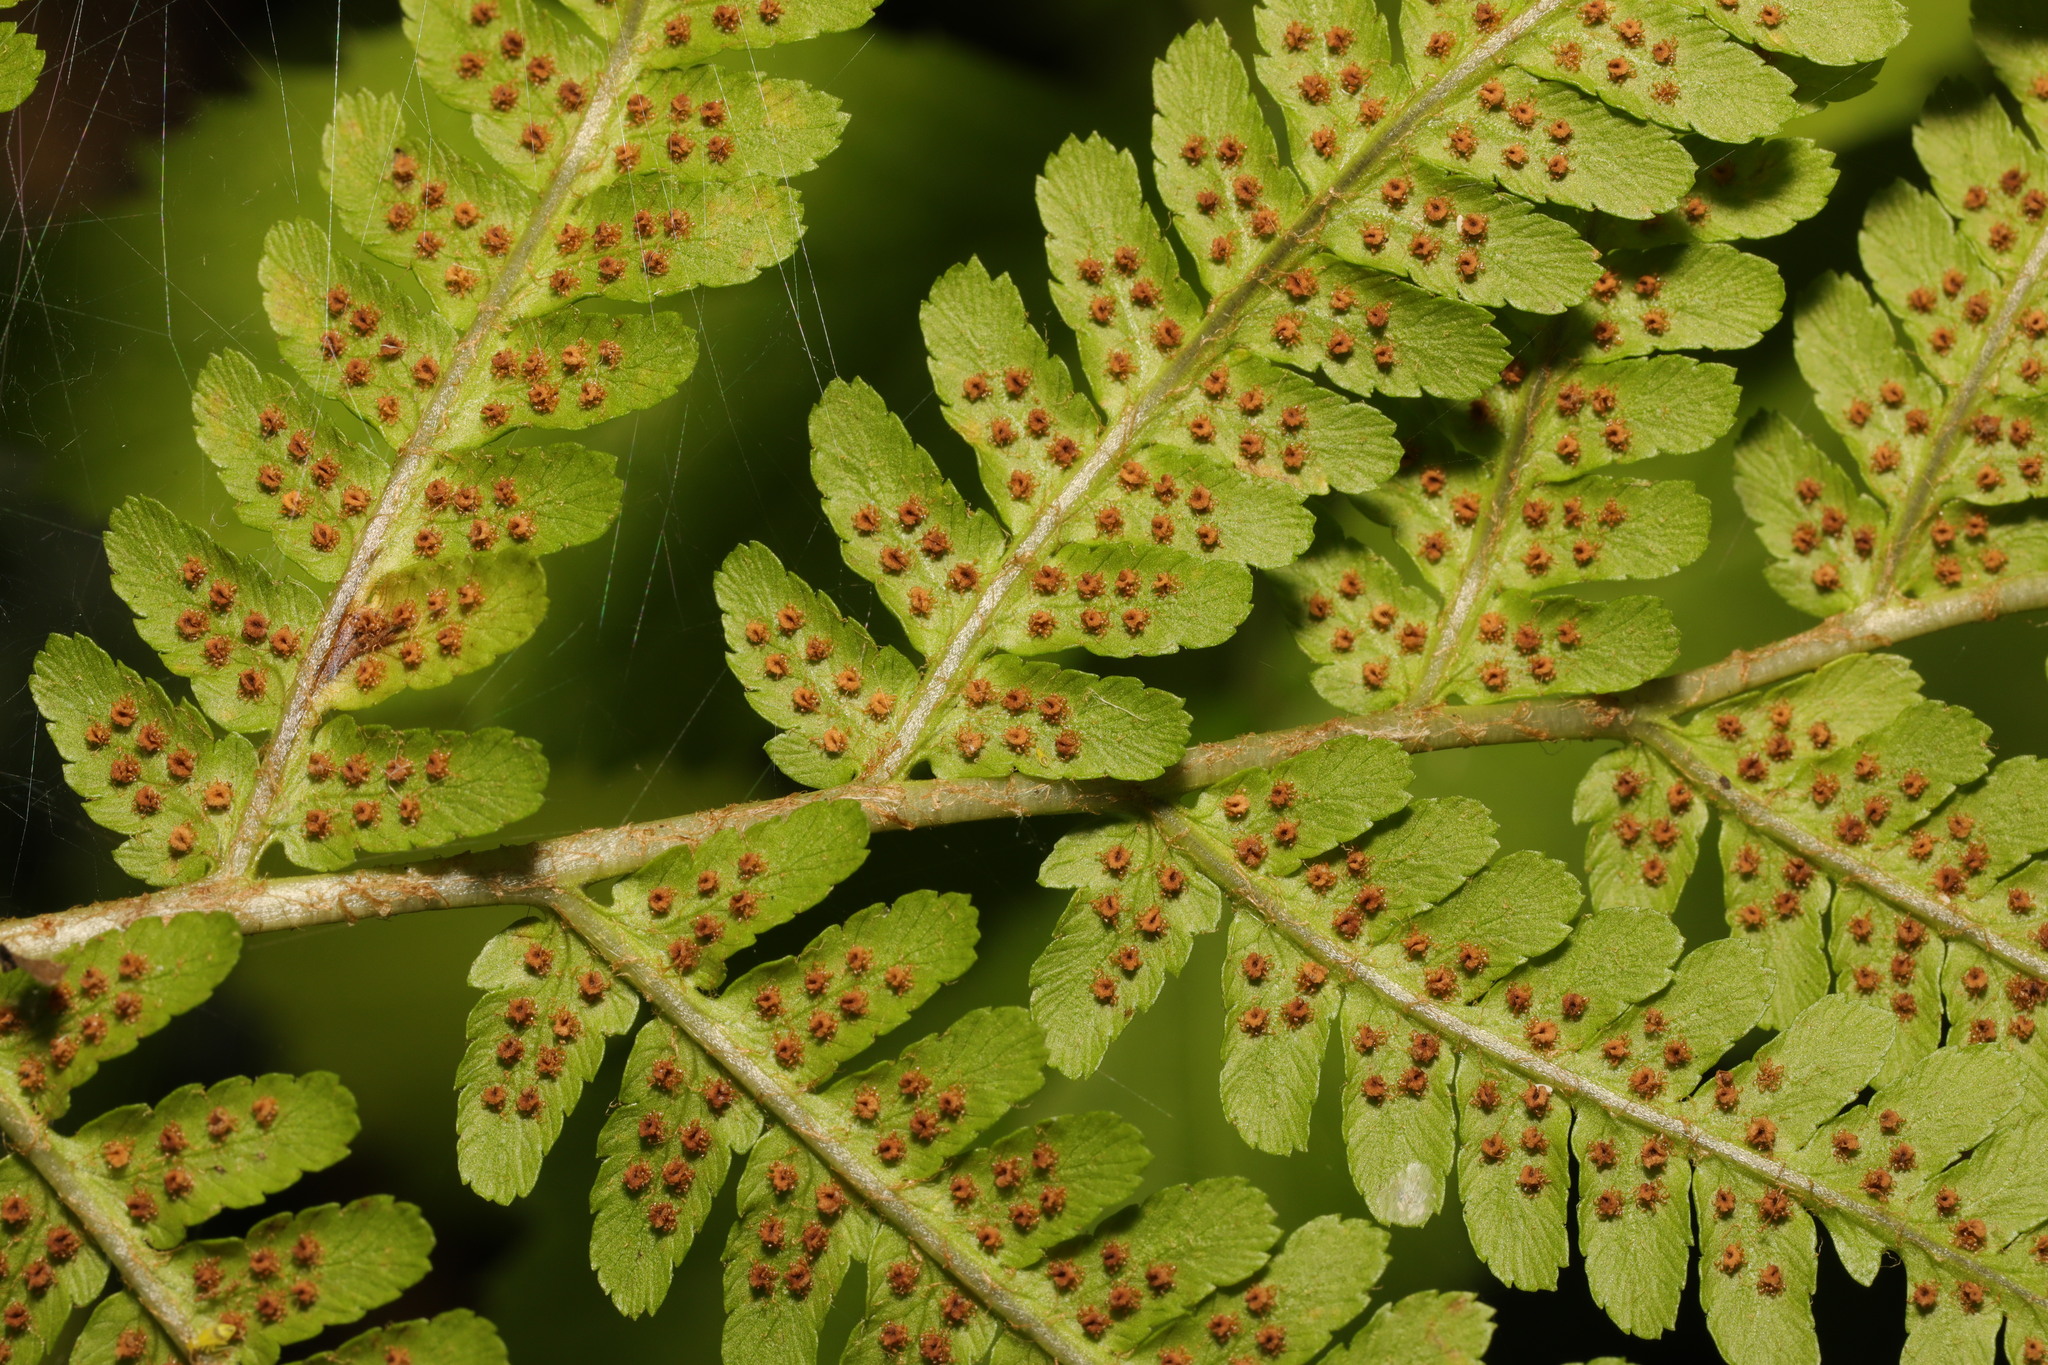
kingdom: Plantae
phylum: Tracheophyta
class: Polypodiopsida
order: Polypodiales
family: Dryopteridaceae
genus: Dryopteris
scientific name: Dryopteris filix-mas
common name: Male fern
